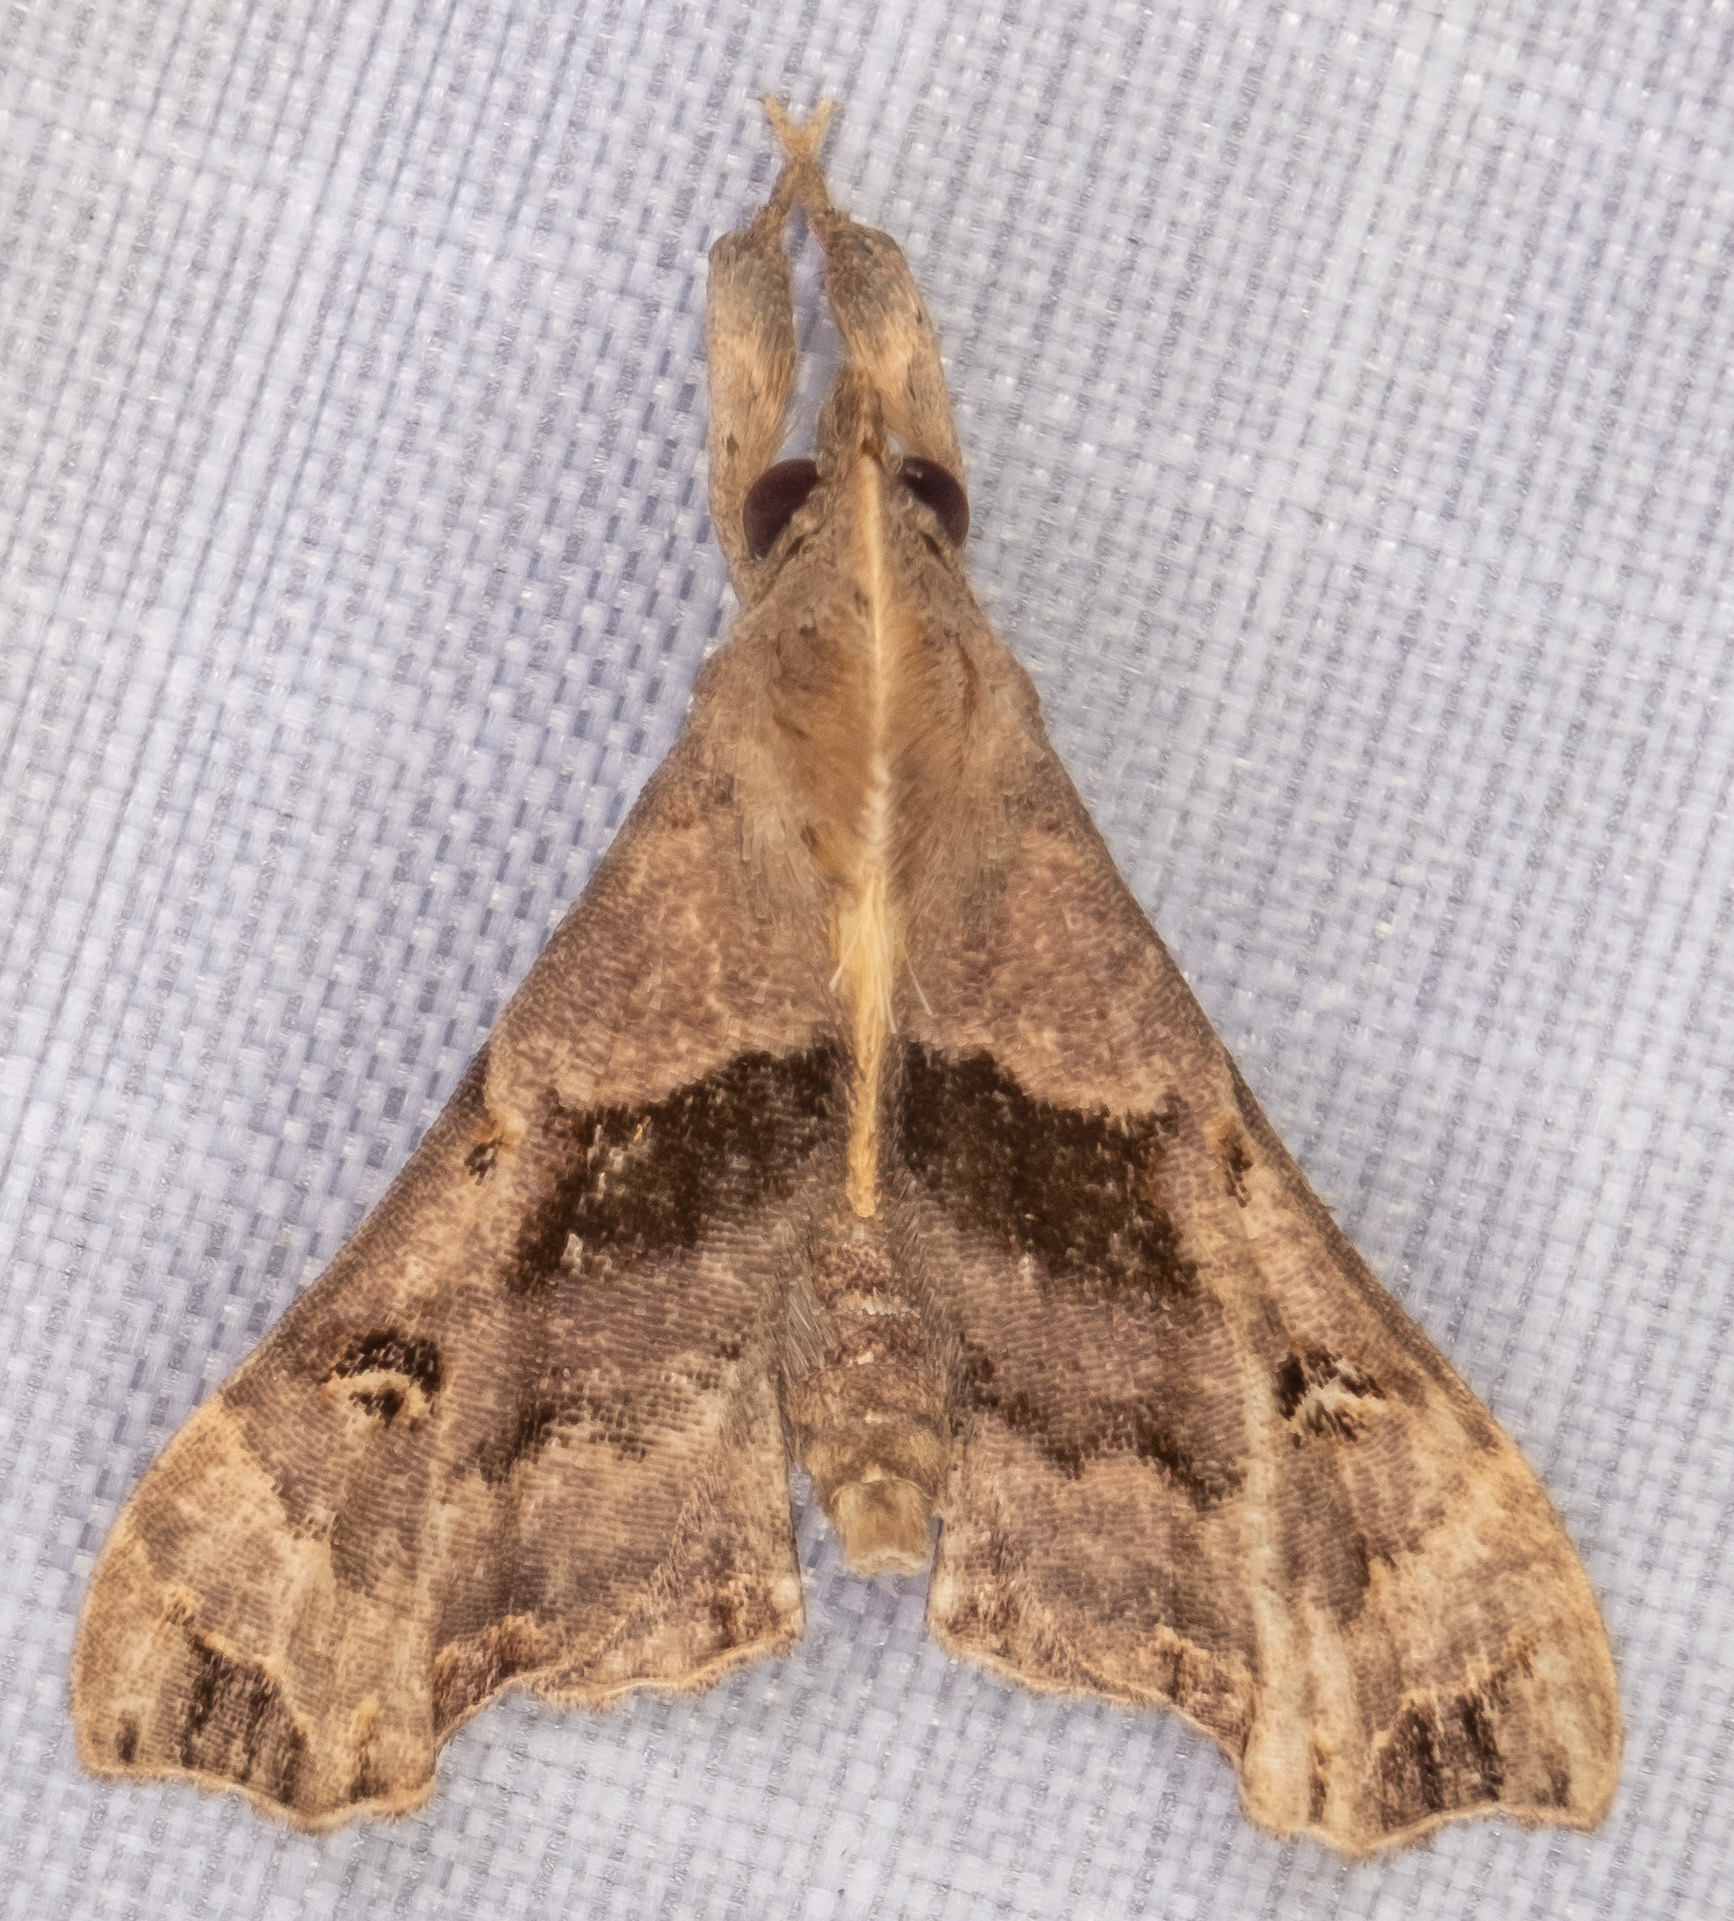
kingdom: Animalia
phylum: Arthropoda
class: Insecta
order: Lepidoptera
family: Erebidae
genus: Palthis
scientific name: Palthis asopialis
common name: Faint-spotted palthis moth
